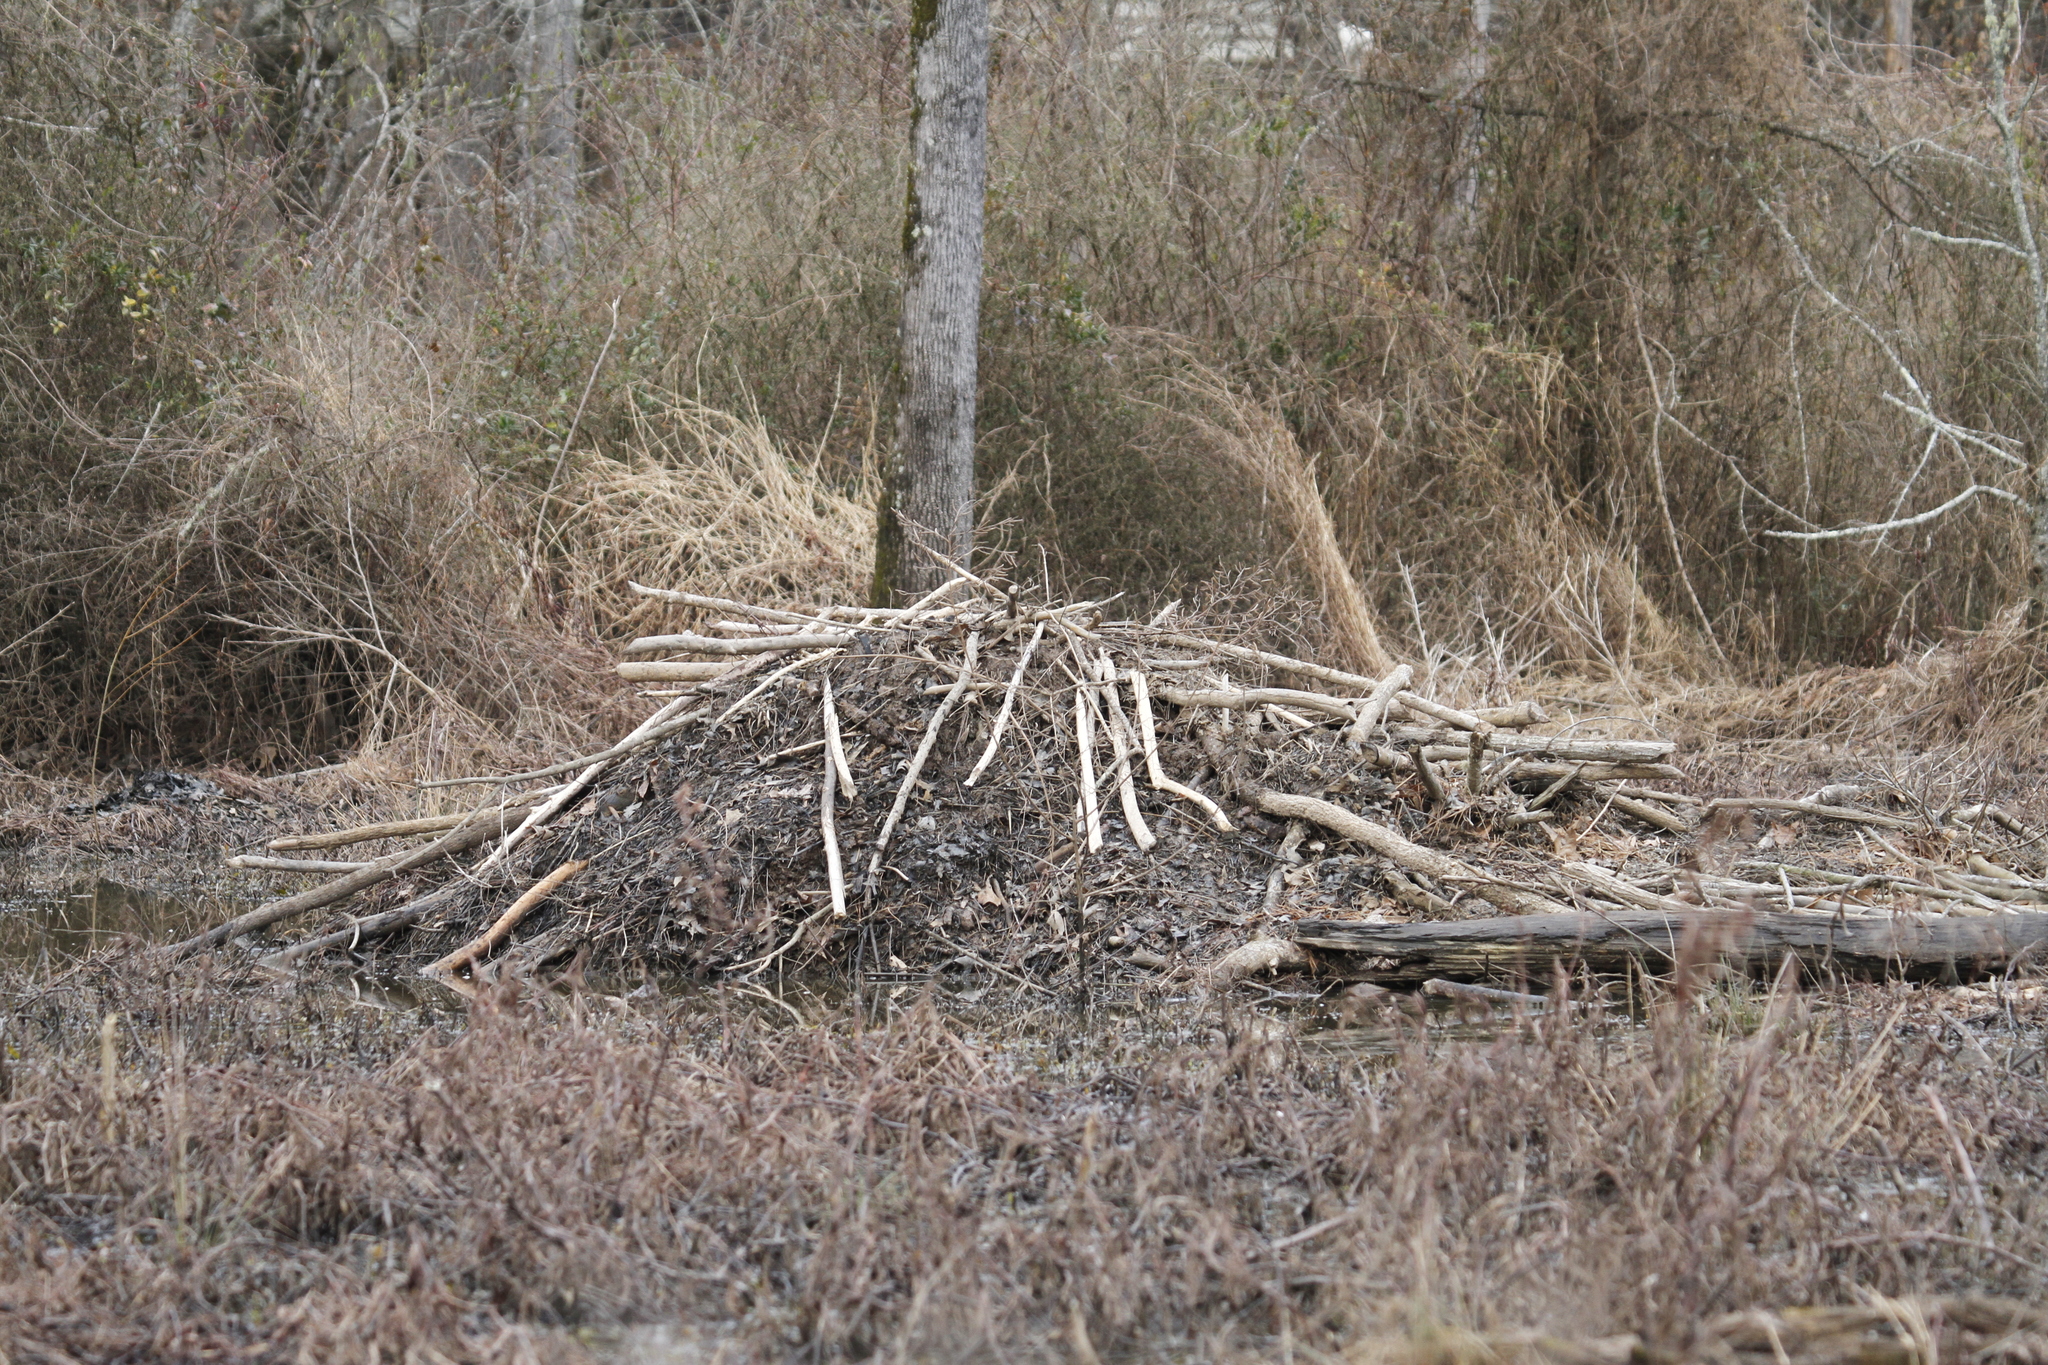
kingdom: Animalia
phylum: Chordata
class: Mammalia
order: Rodentia
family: Castoridae
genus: Castor
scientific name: Castor canadensis
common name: American beaver
